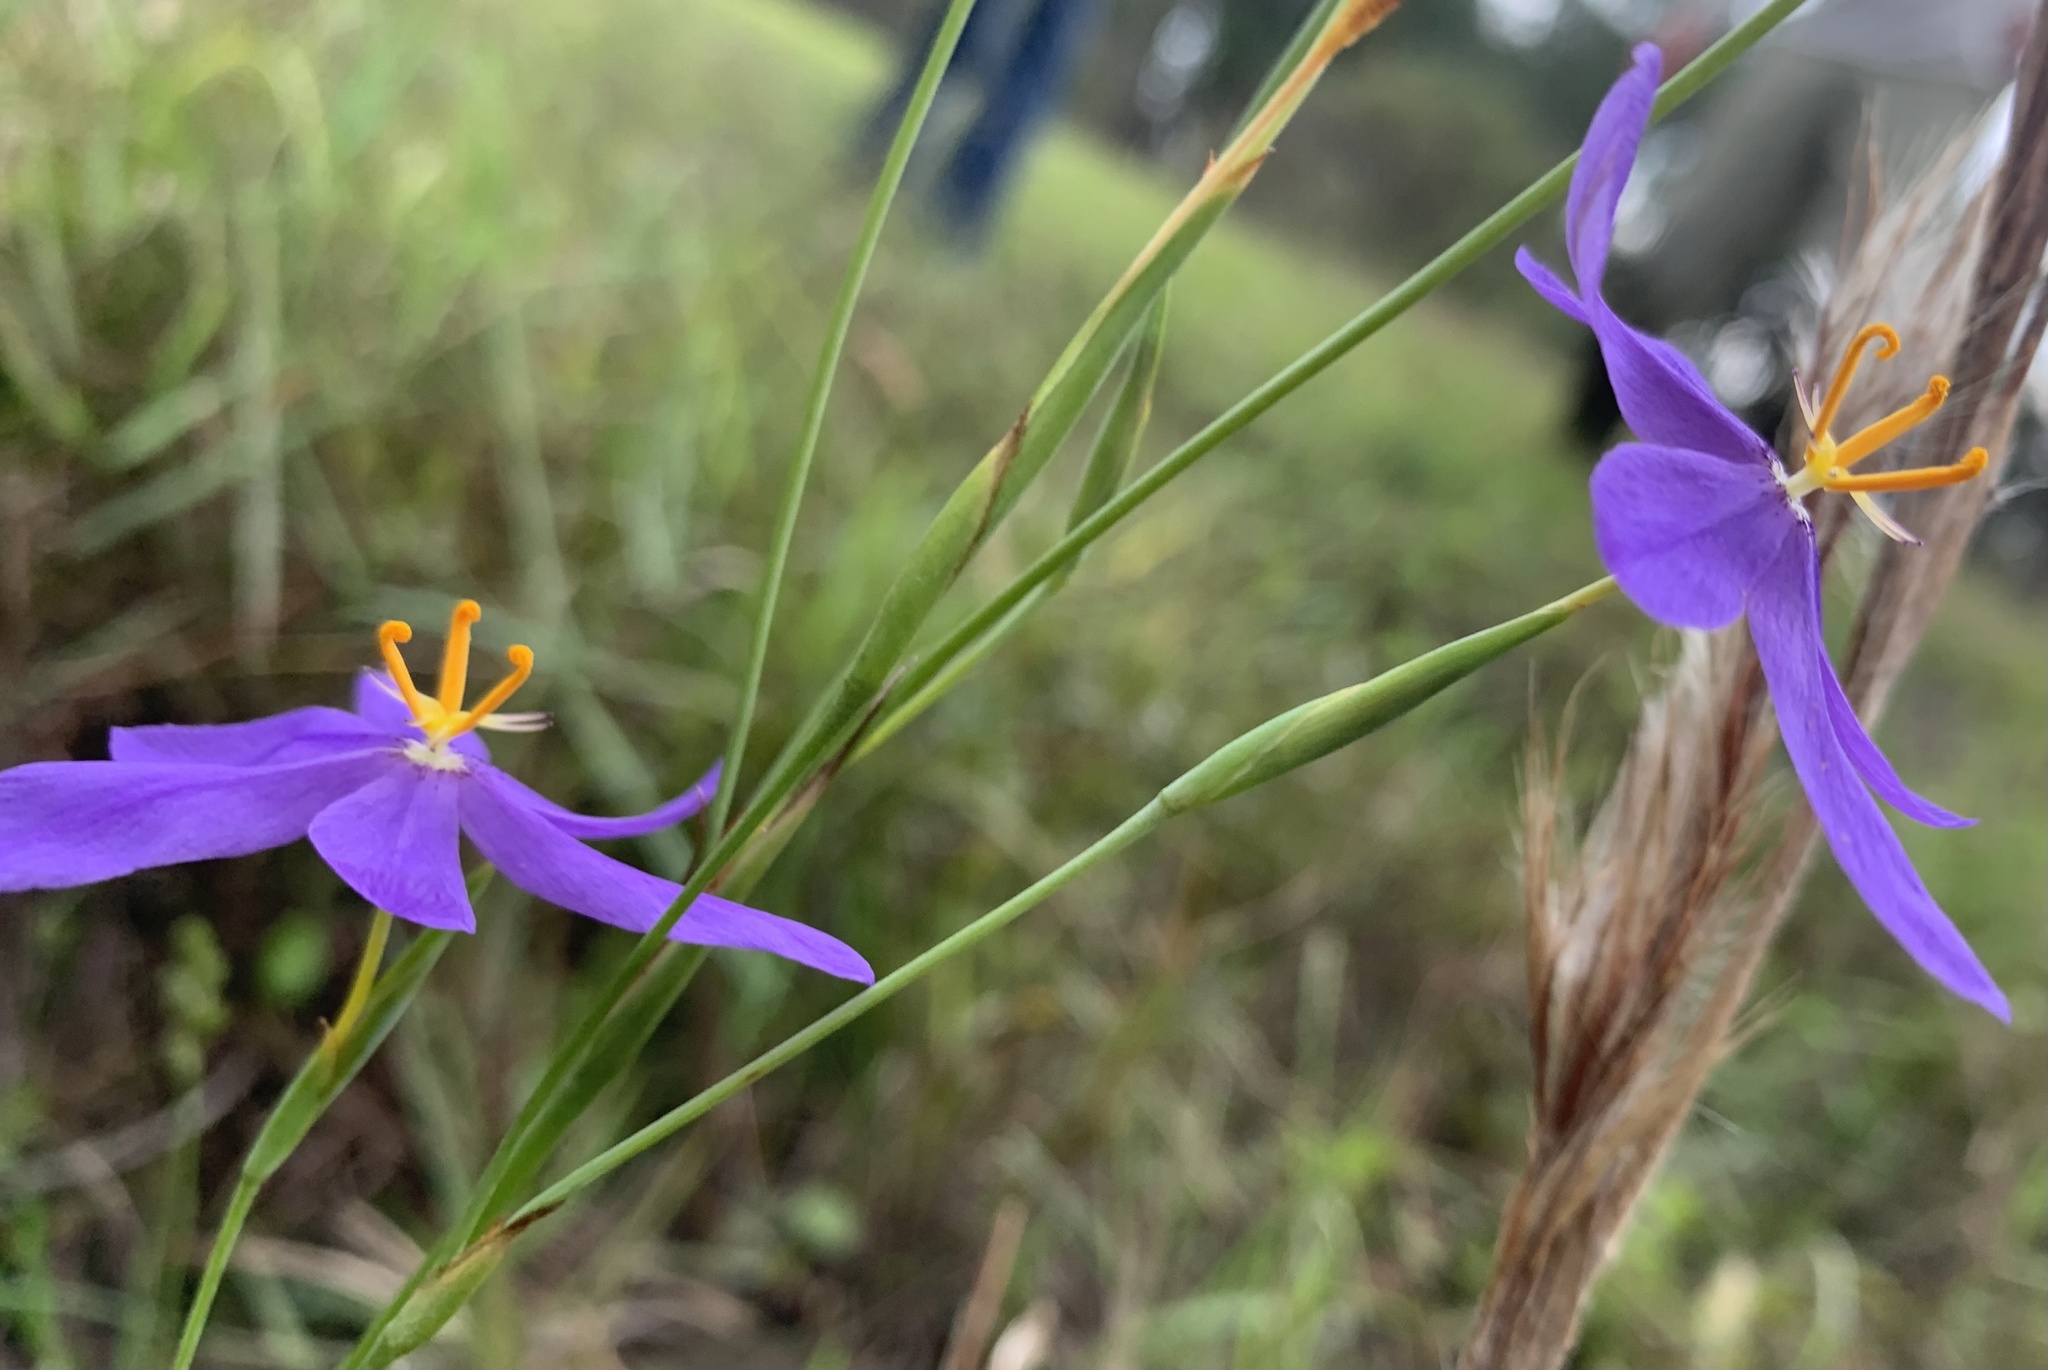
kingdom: Plantae
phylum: Tracheophyta
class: Liliopsida
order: Asparagales
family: Iridaceae
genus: Nemastylis
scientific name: Nemastylis floridana
